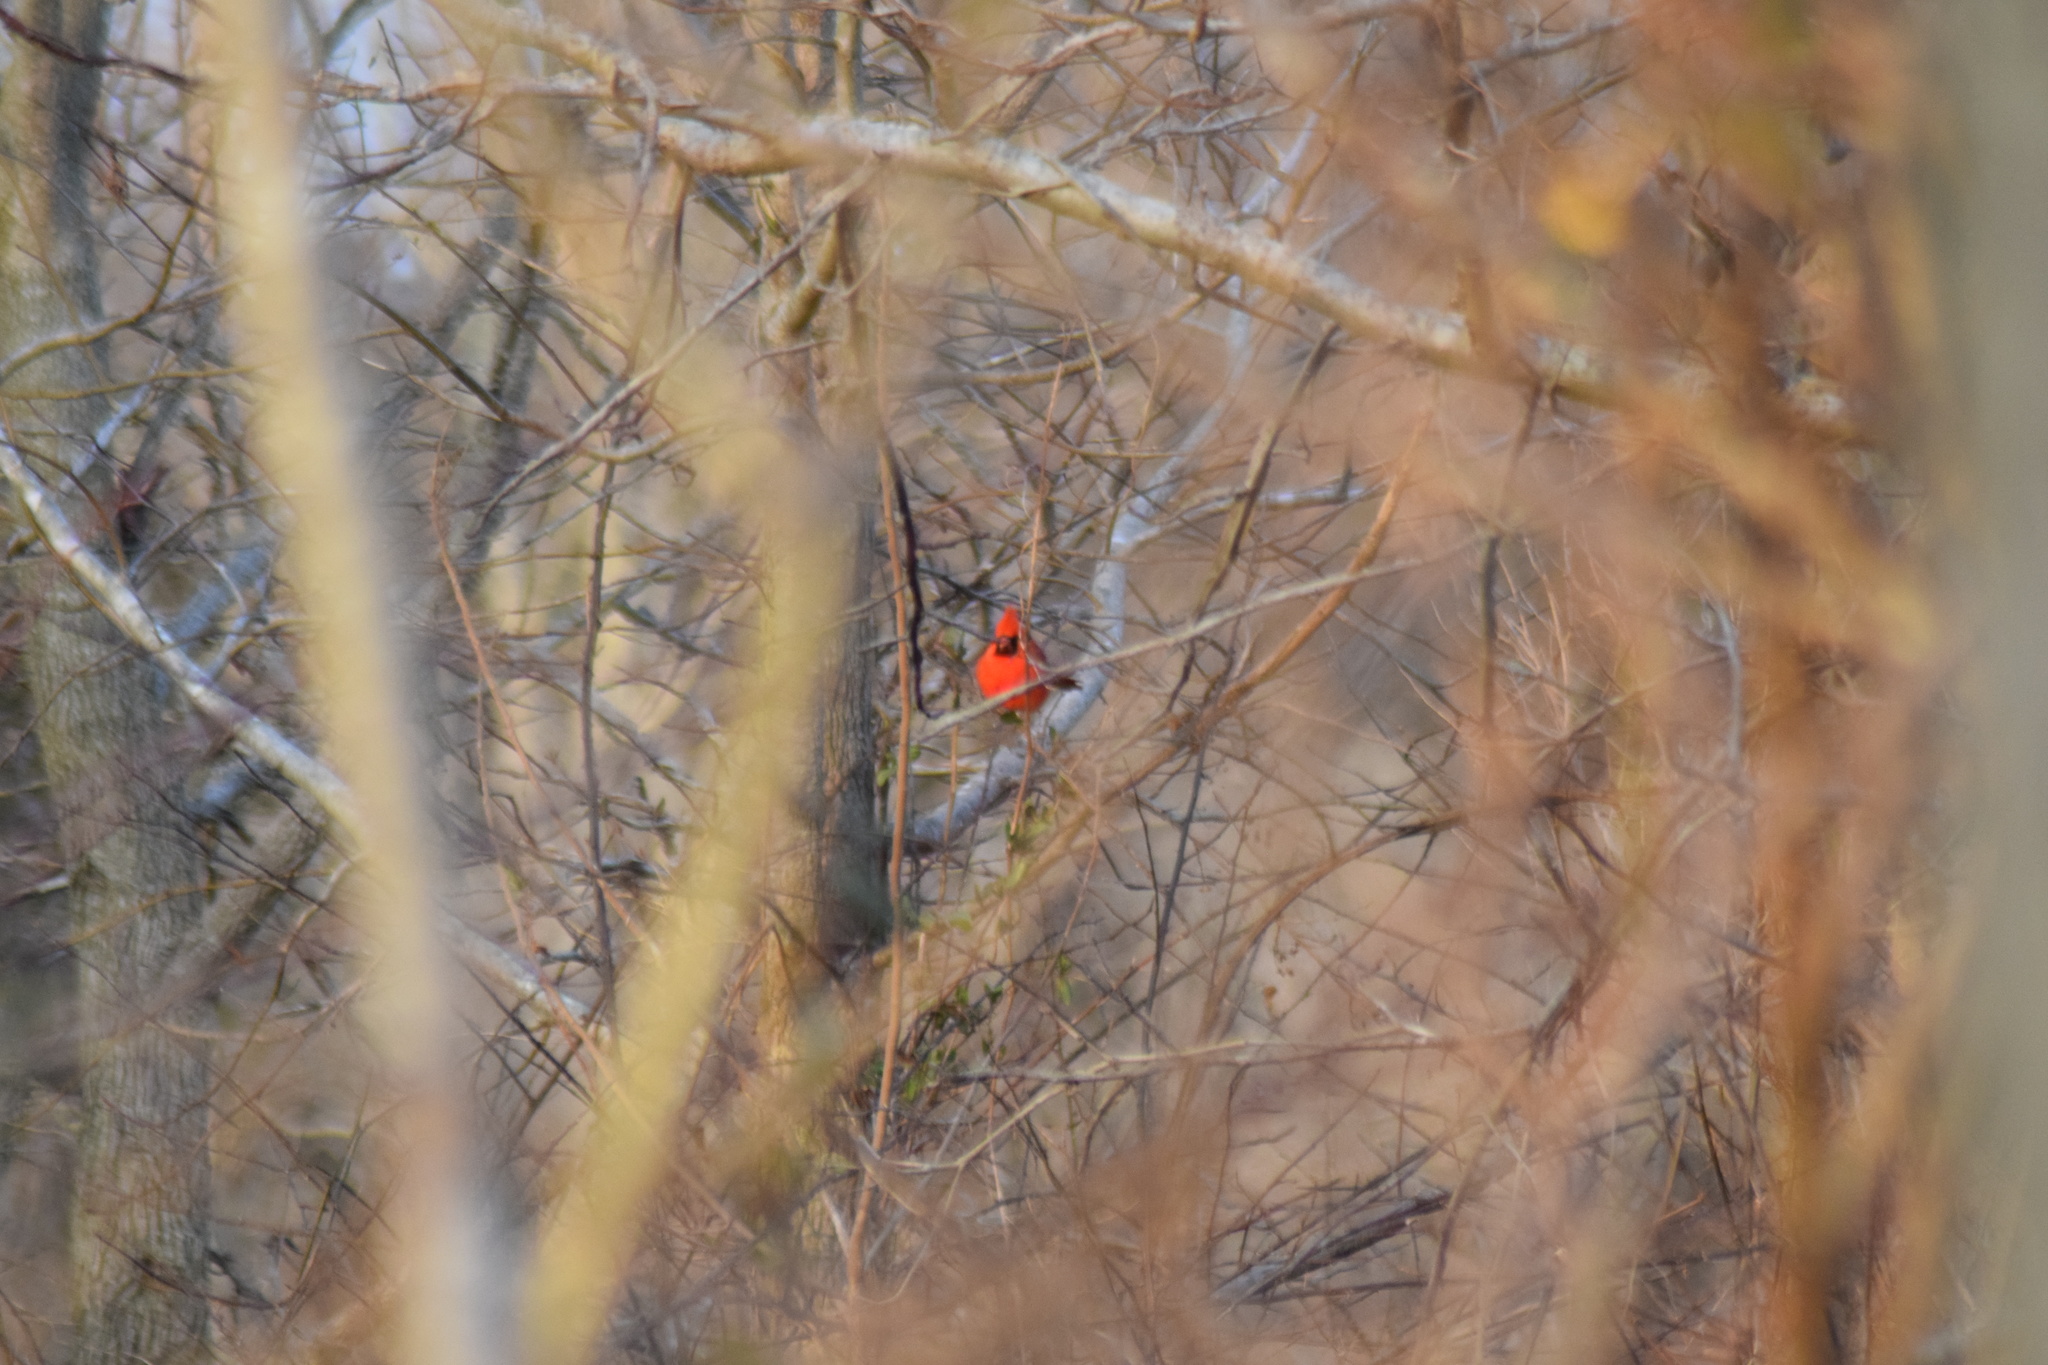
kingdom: Animalia
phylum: Chordata
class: Aves
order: Passeriformes
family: Cardinalidae
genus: Cardinalis
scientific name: Cardinalis cardinalis
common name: Northern cardinal
